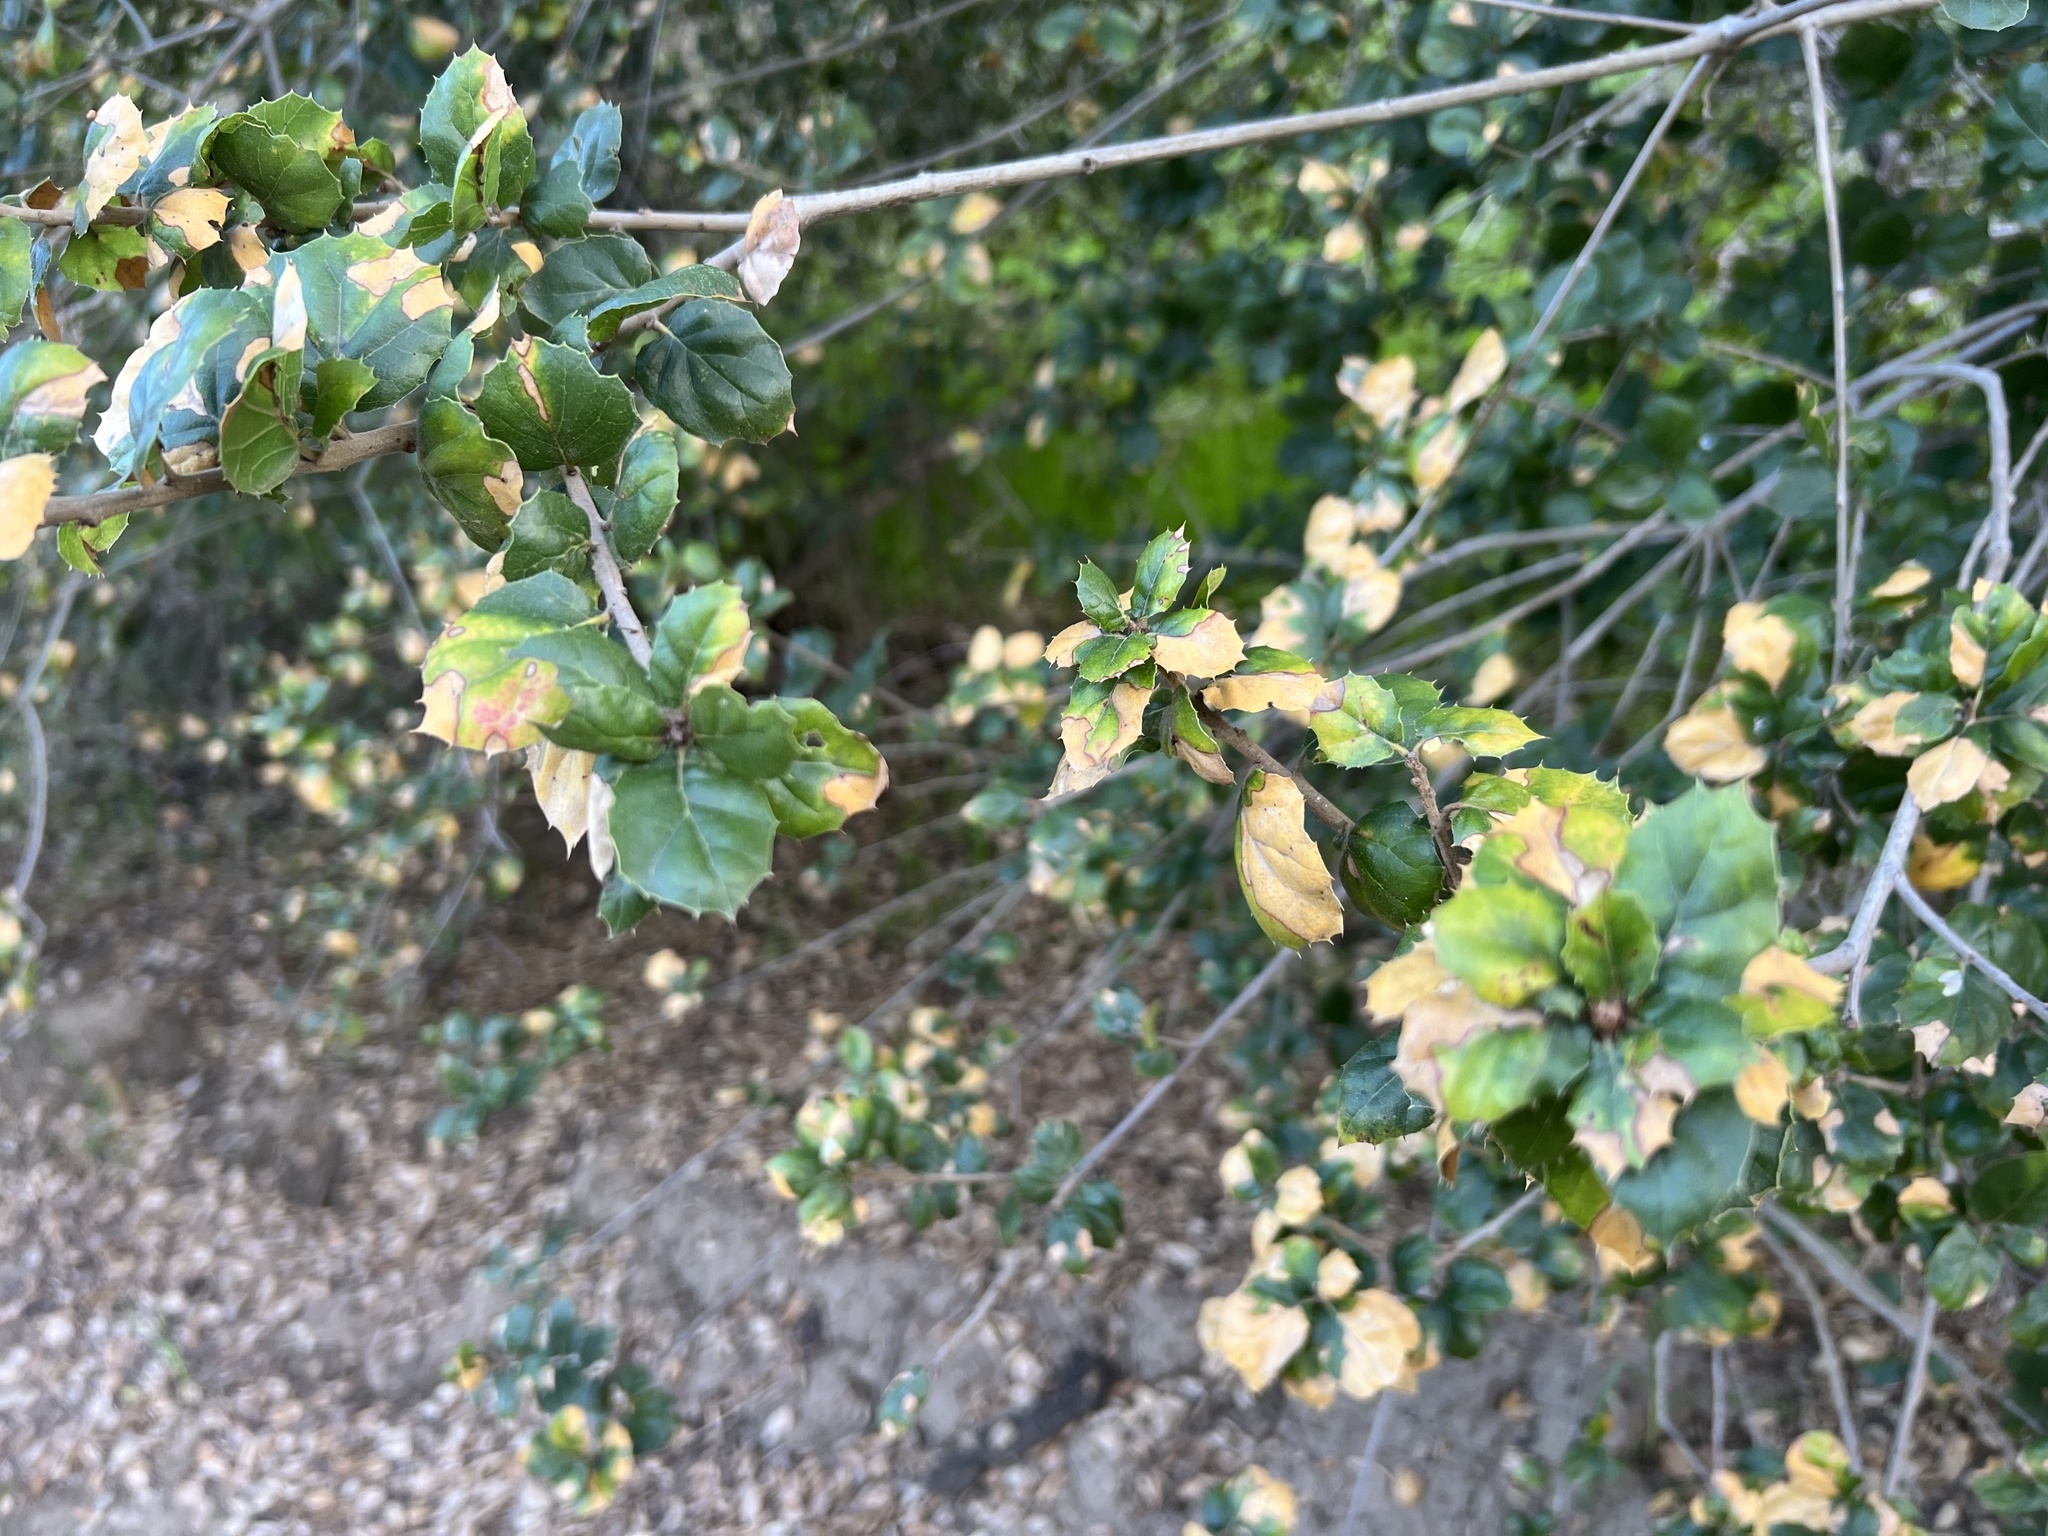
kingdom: Plantae
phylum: Tracheophyta
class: Magnoliopsida
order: Fagales
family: Fagaceae
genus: Quercus
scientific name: Quercus agrifolia
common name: California live oak
